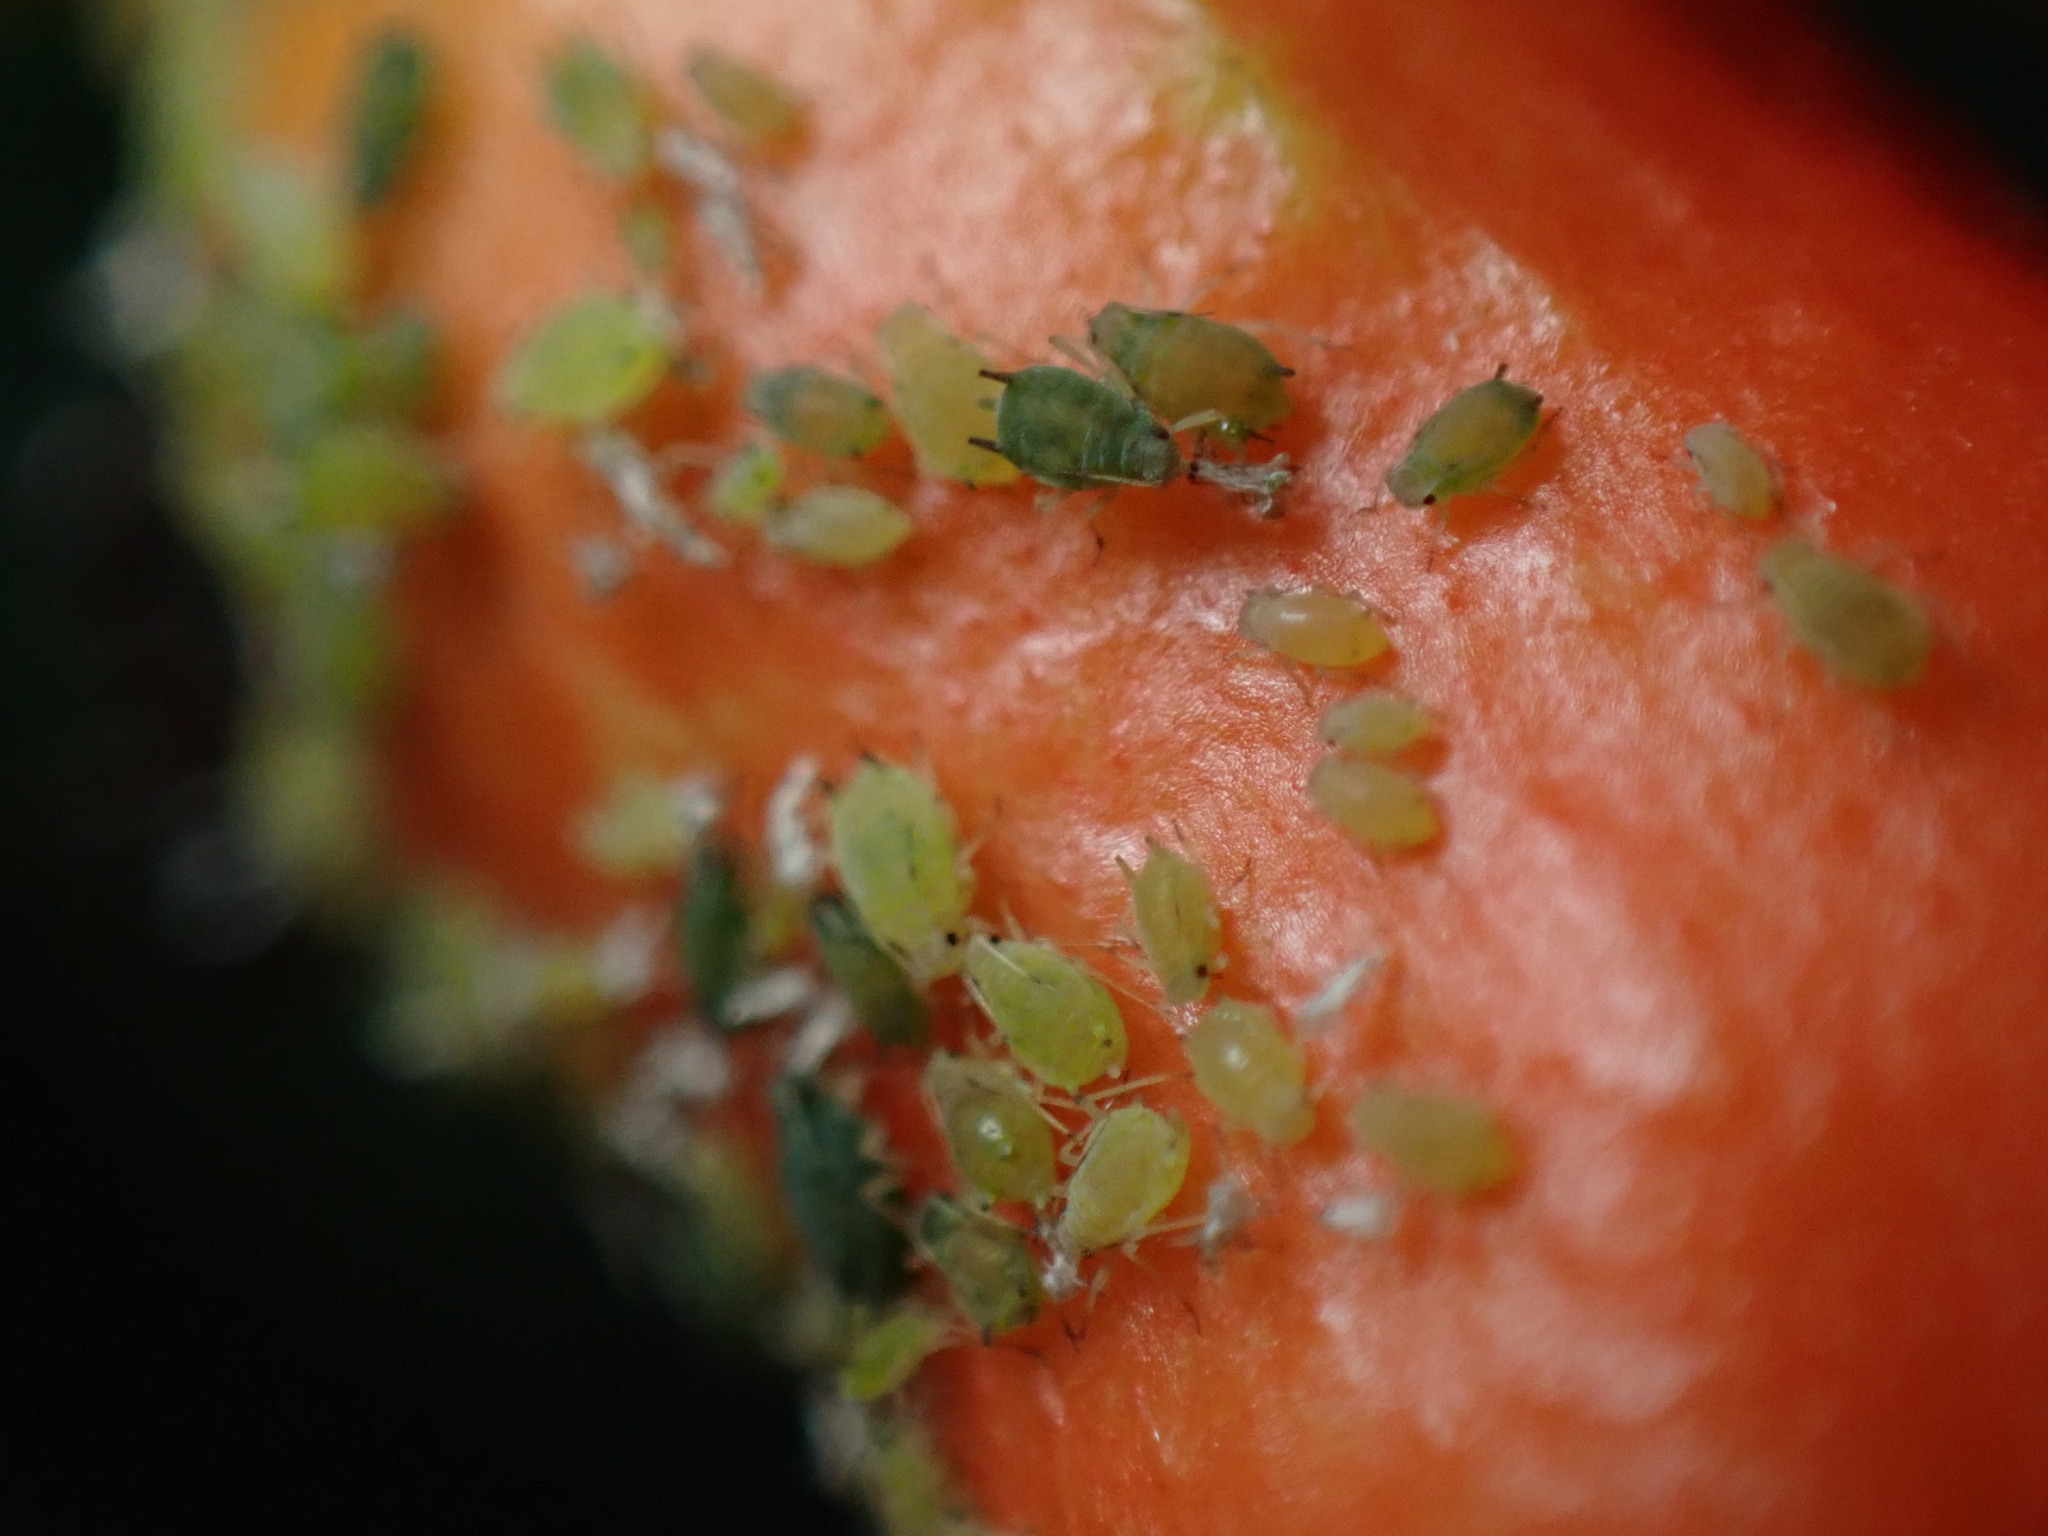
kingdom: Animalia
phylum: Arthropoda
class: Insecta
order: Hemiptera
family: Aphididae
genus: Aphis
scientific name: Aphis punicae
